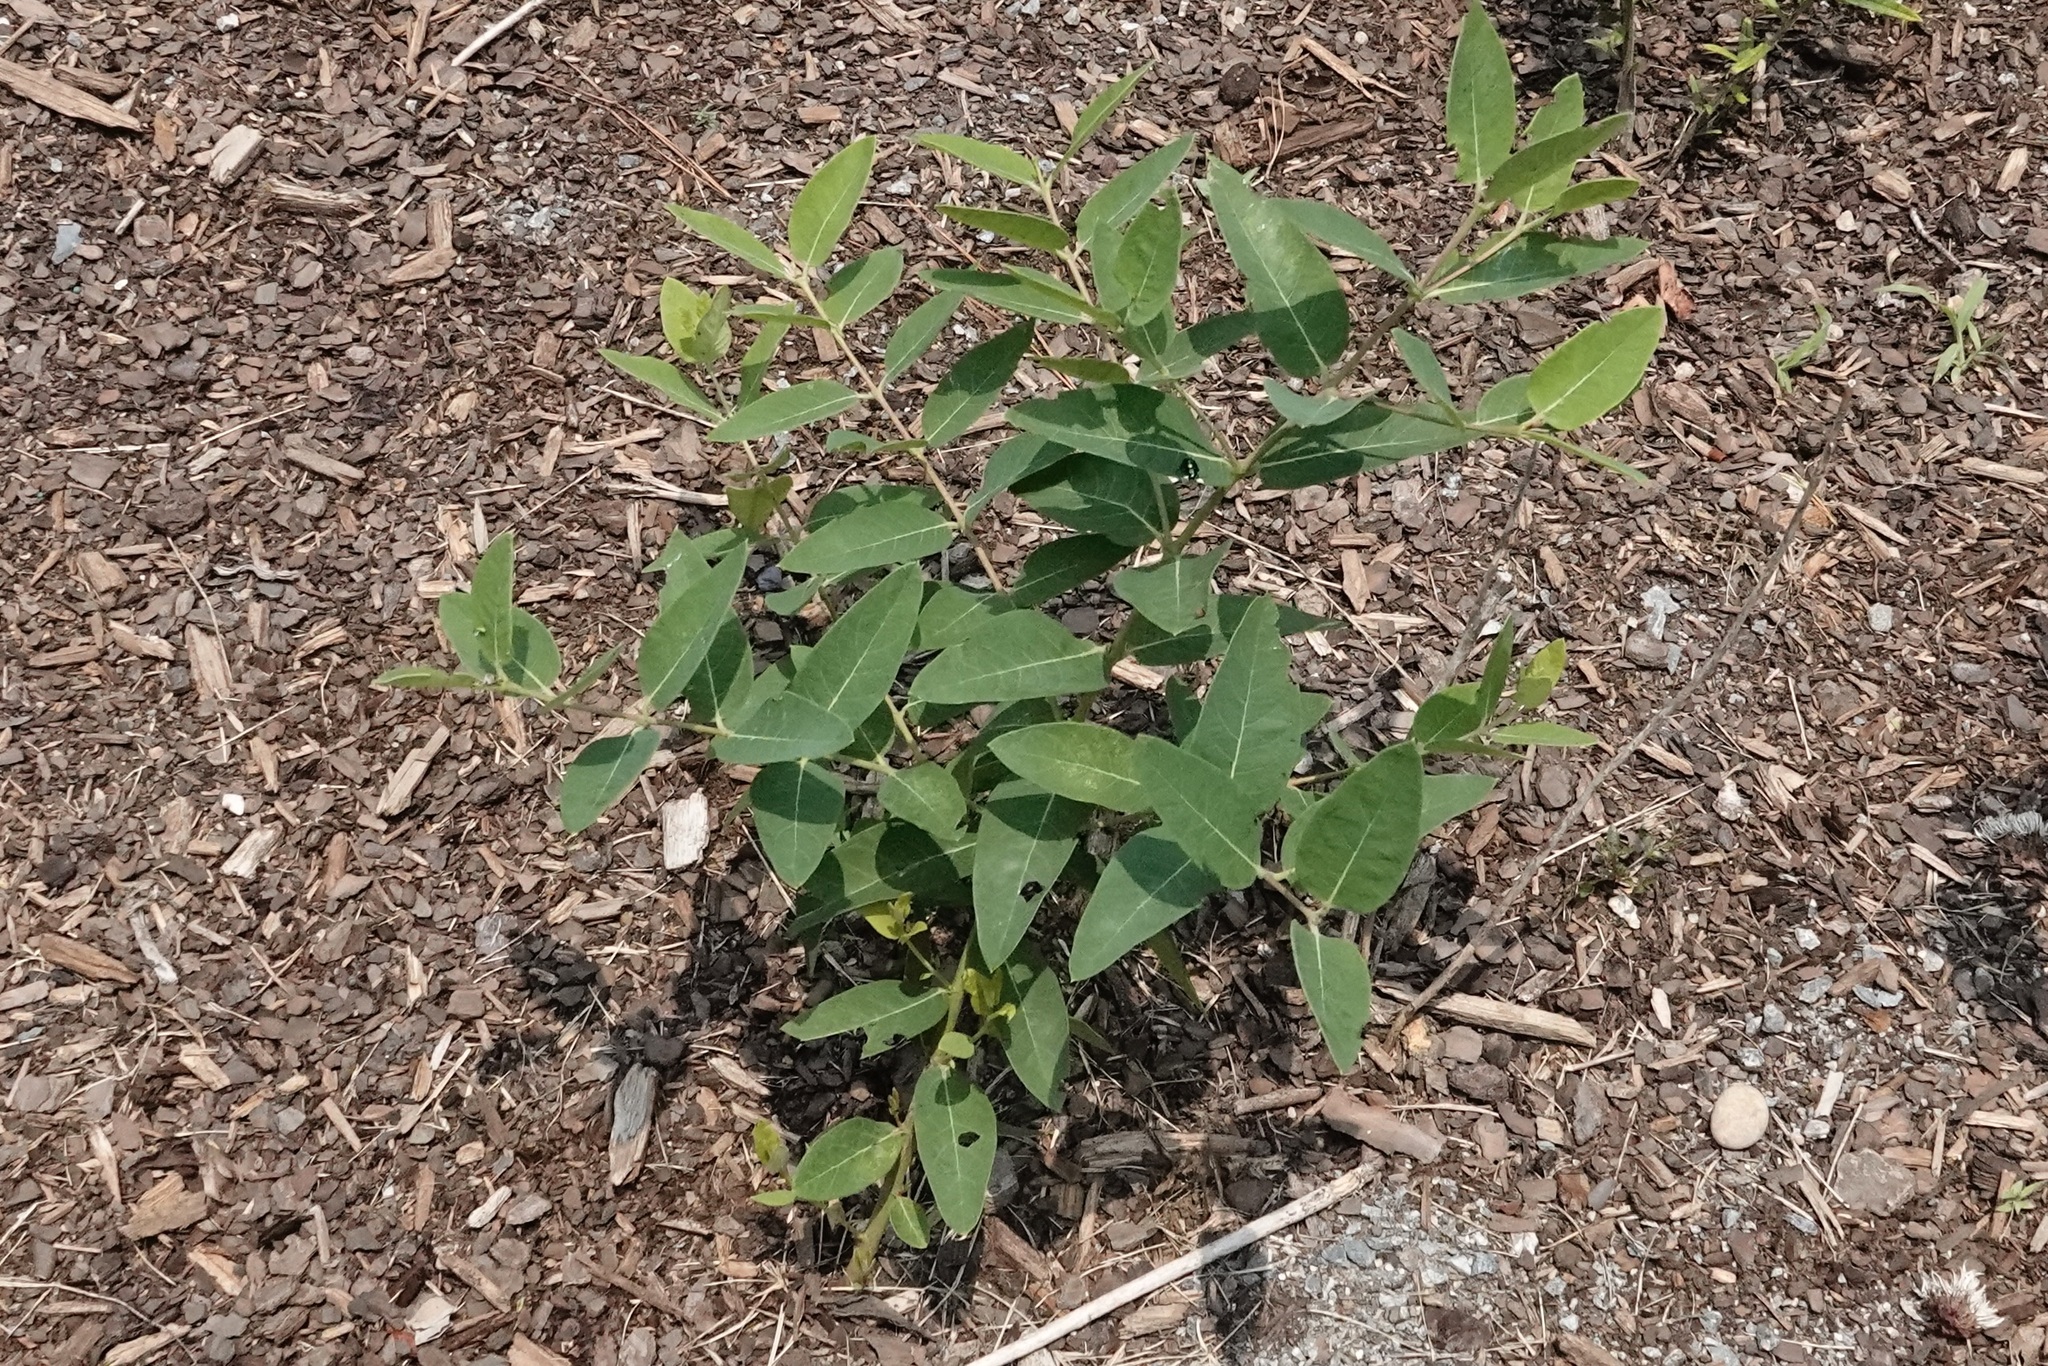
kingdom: Plantae
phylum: Tracheophyta
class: Magnoliopsida
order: Gentianales
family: Apocynaceae
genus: Apocynum
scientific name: Apocynum cannabinum
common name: Hemp dogbane
